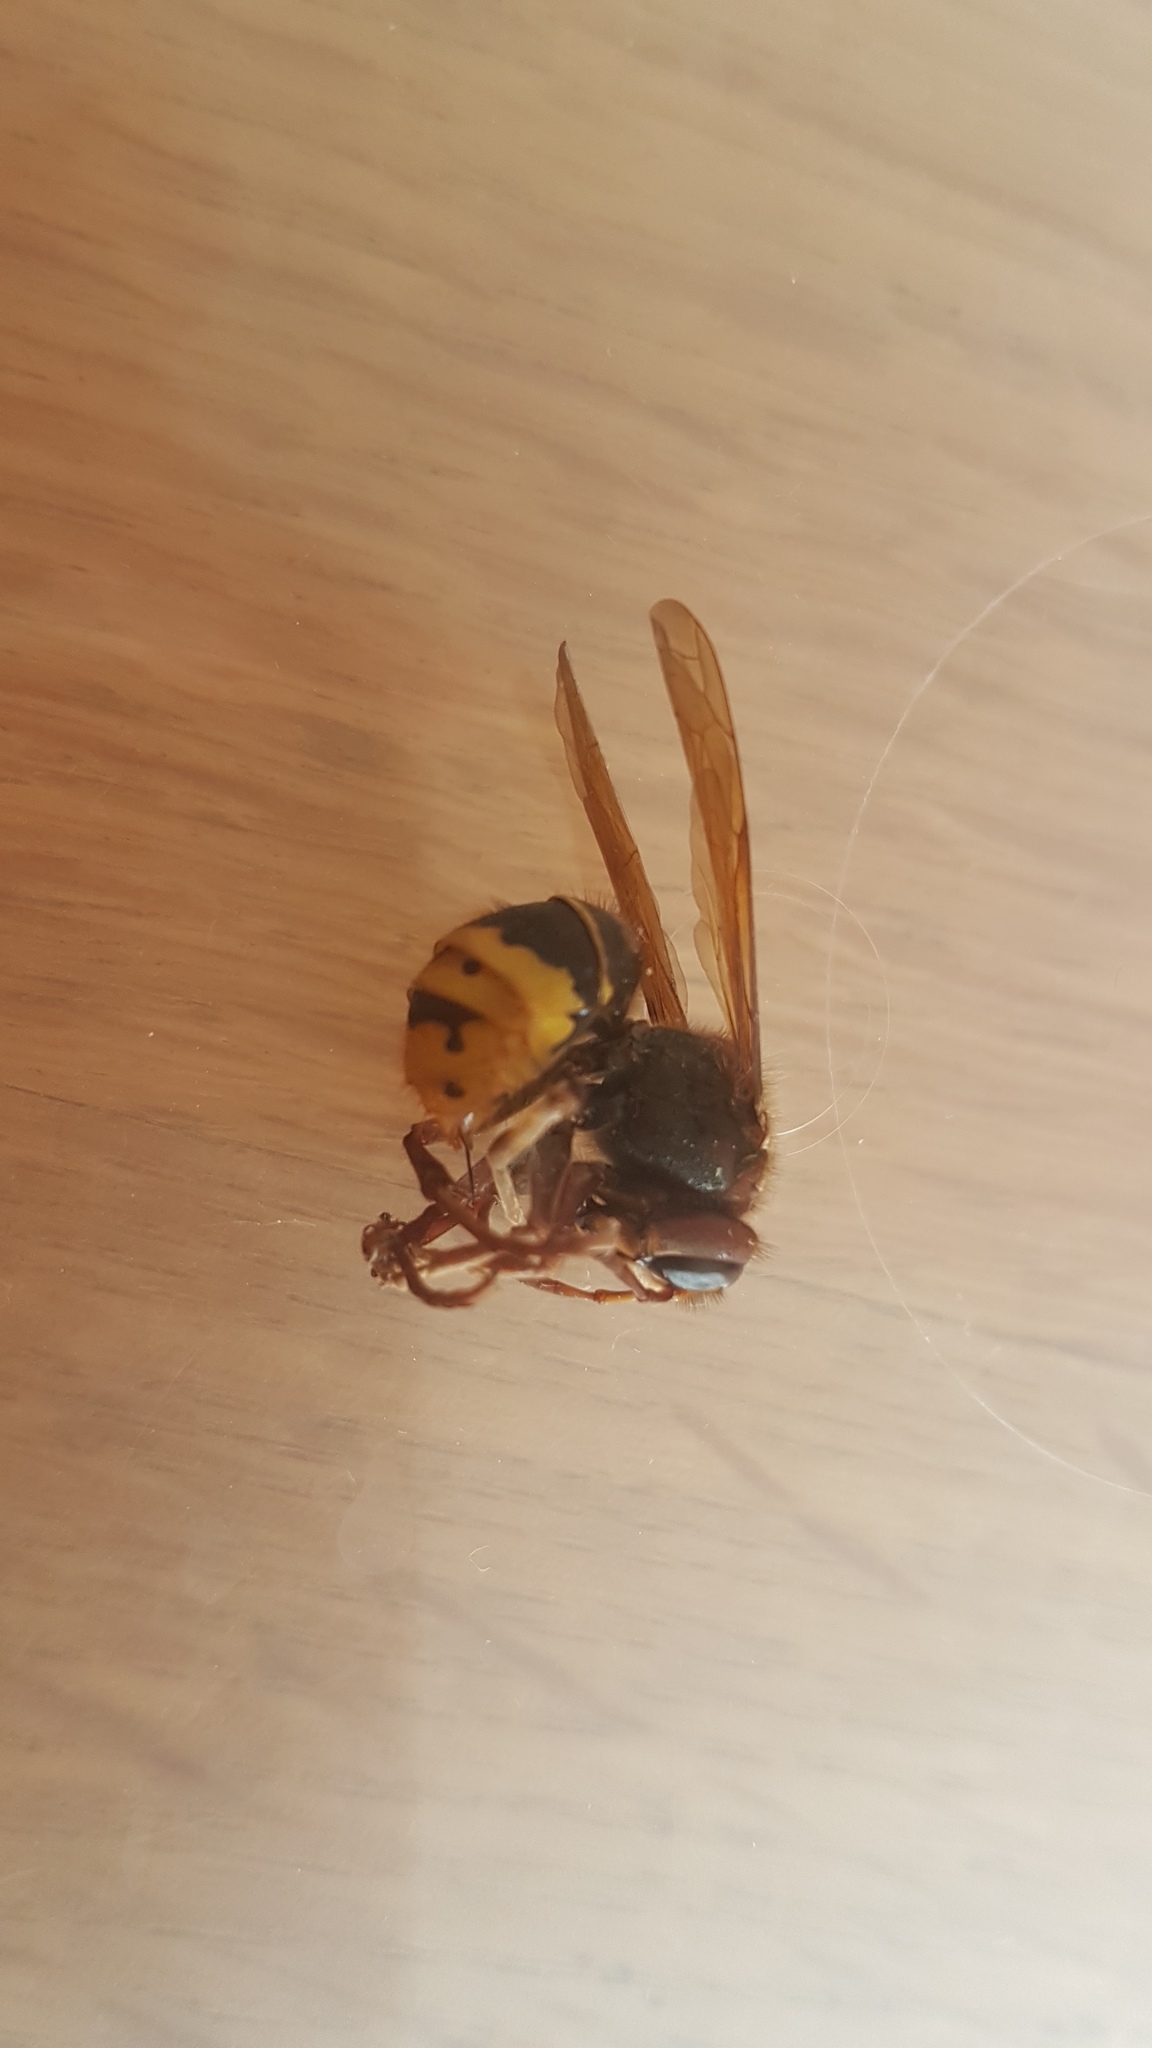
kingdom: Animalia
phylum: Arthropoda
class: Insecta
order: Hymenoptera
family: Vespidae
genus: Vespa
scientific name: Vespa crabro
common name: Hornet
